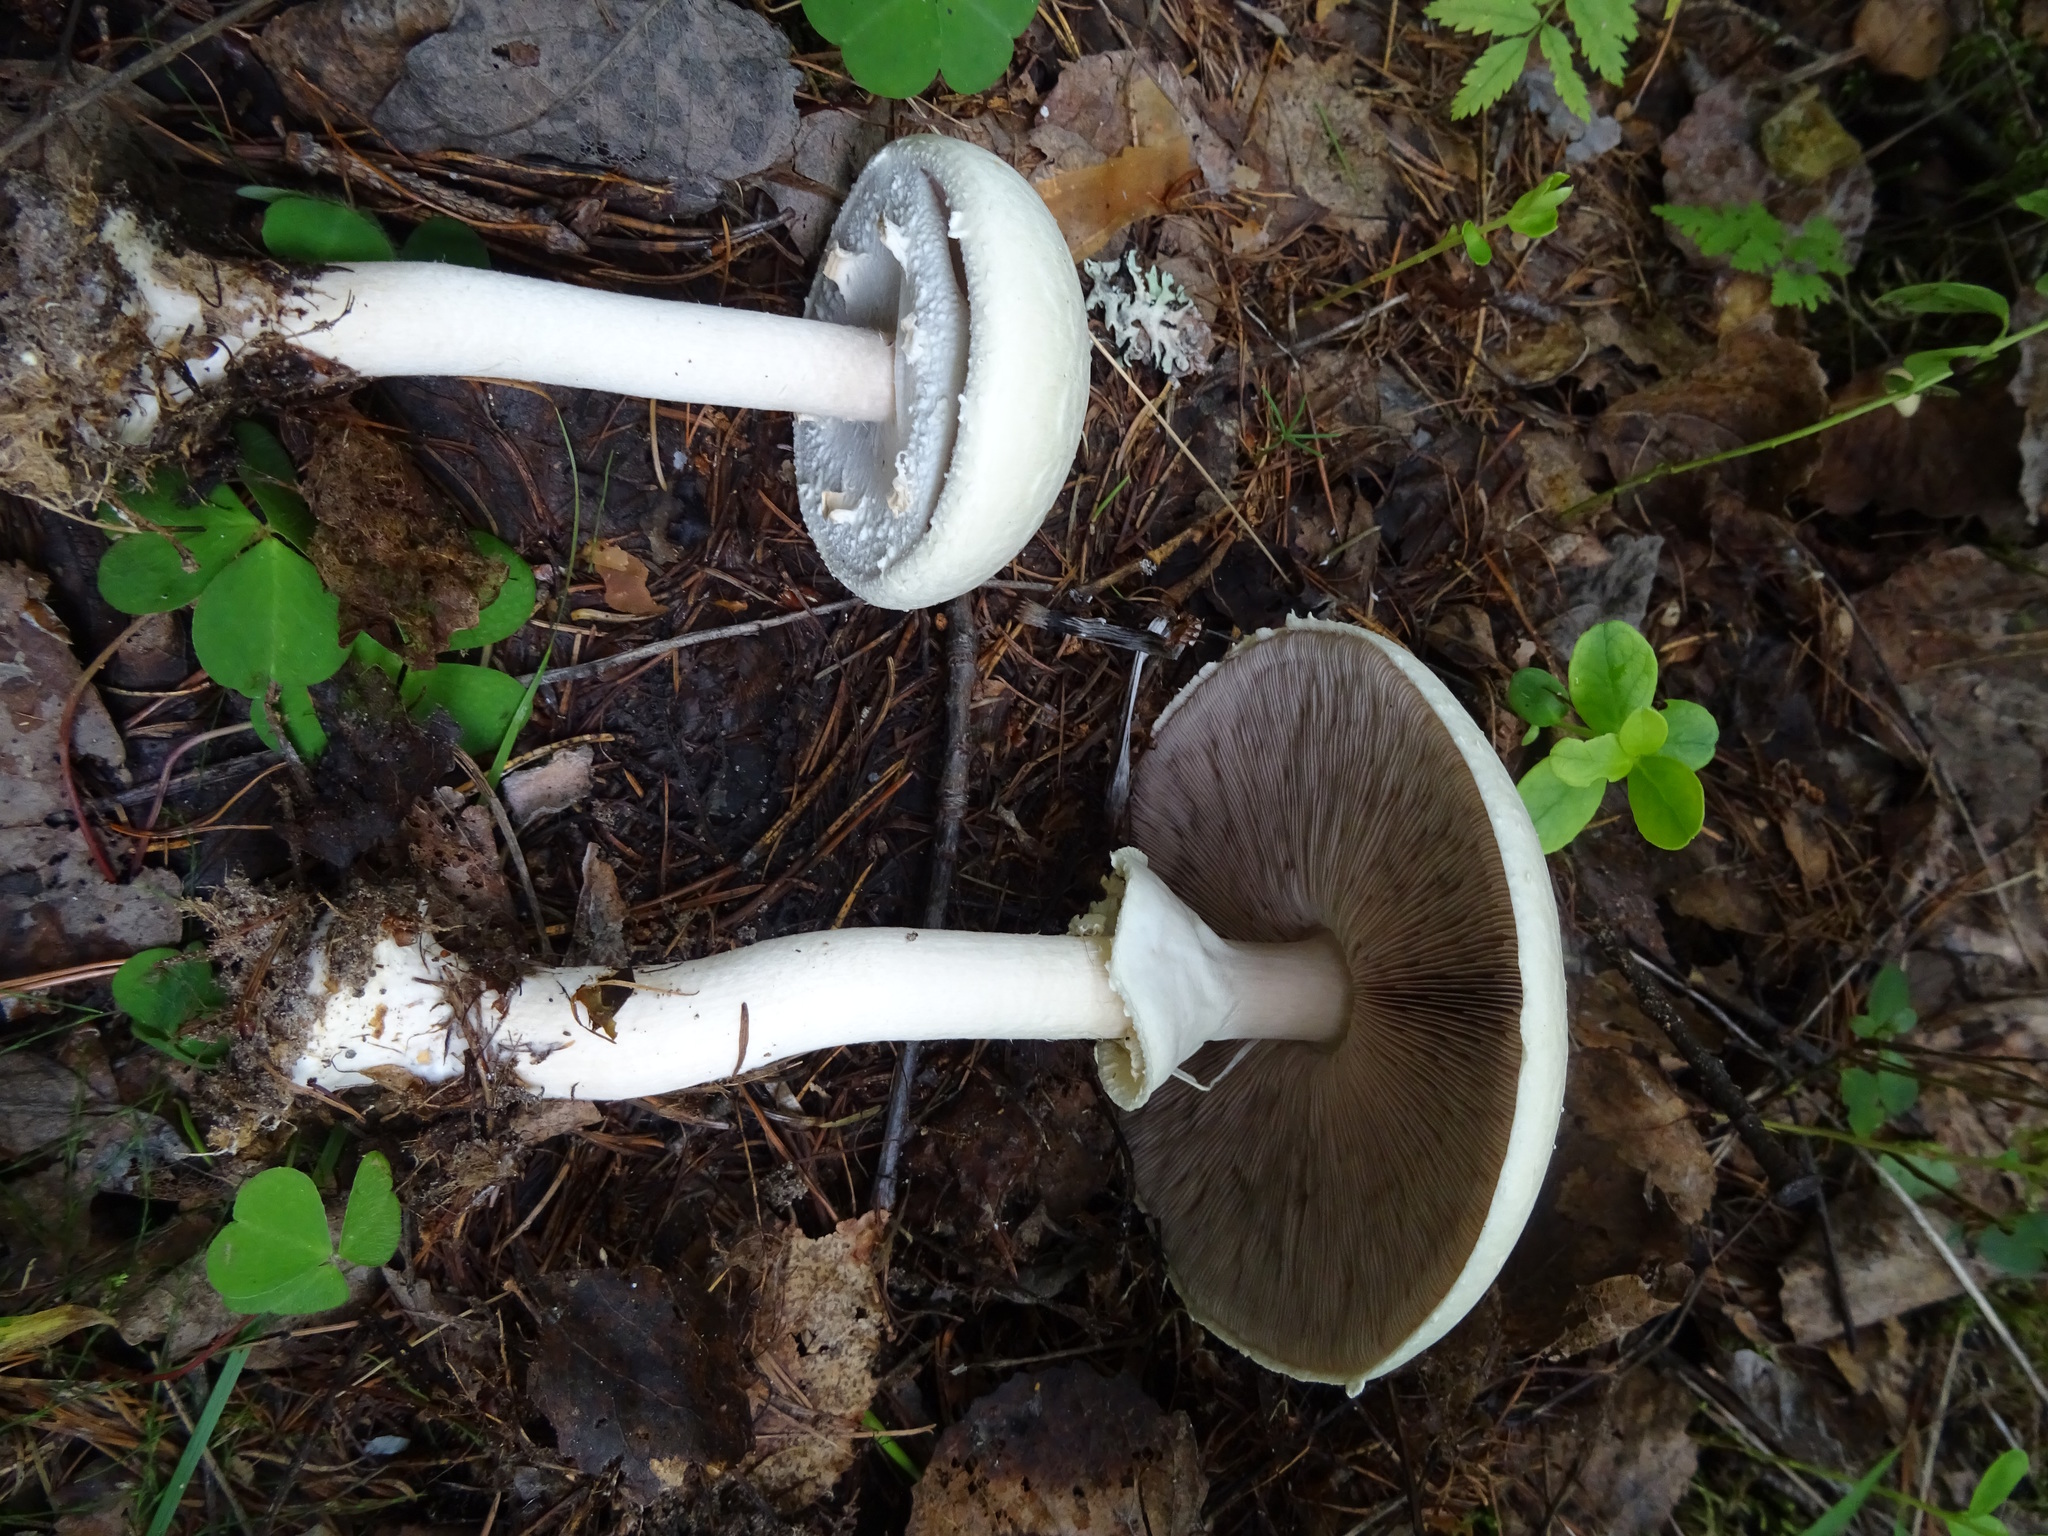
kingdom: Fungi
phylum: Basidiomycota
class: Agaricomycetes
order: Agaricales
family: Agaricaceae
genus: Agaricus
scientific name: Agaricus sylvicola
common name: Wood mushroom
